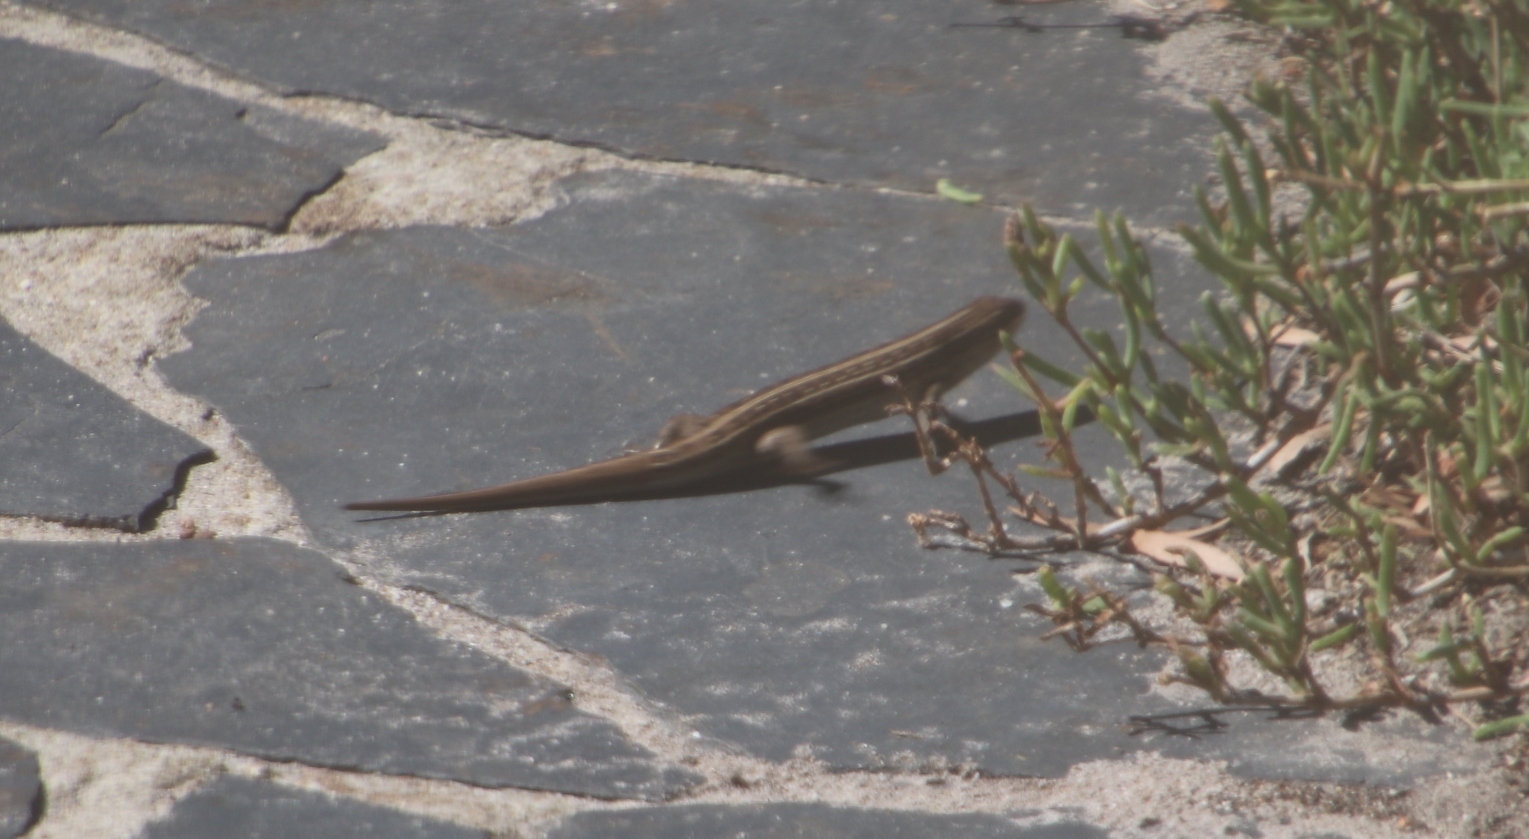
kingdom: Animalia
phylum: Chordata
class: Squamata
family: Scincidae
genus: Trachylepis
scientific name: Trachylepis capensis
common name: Cape skink
